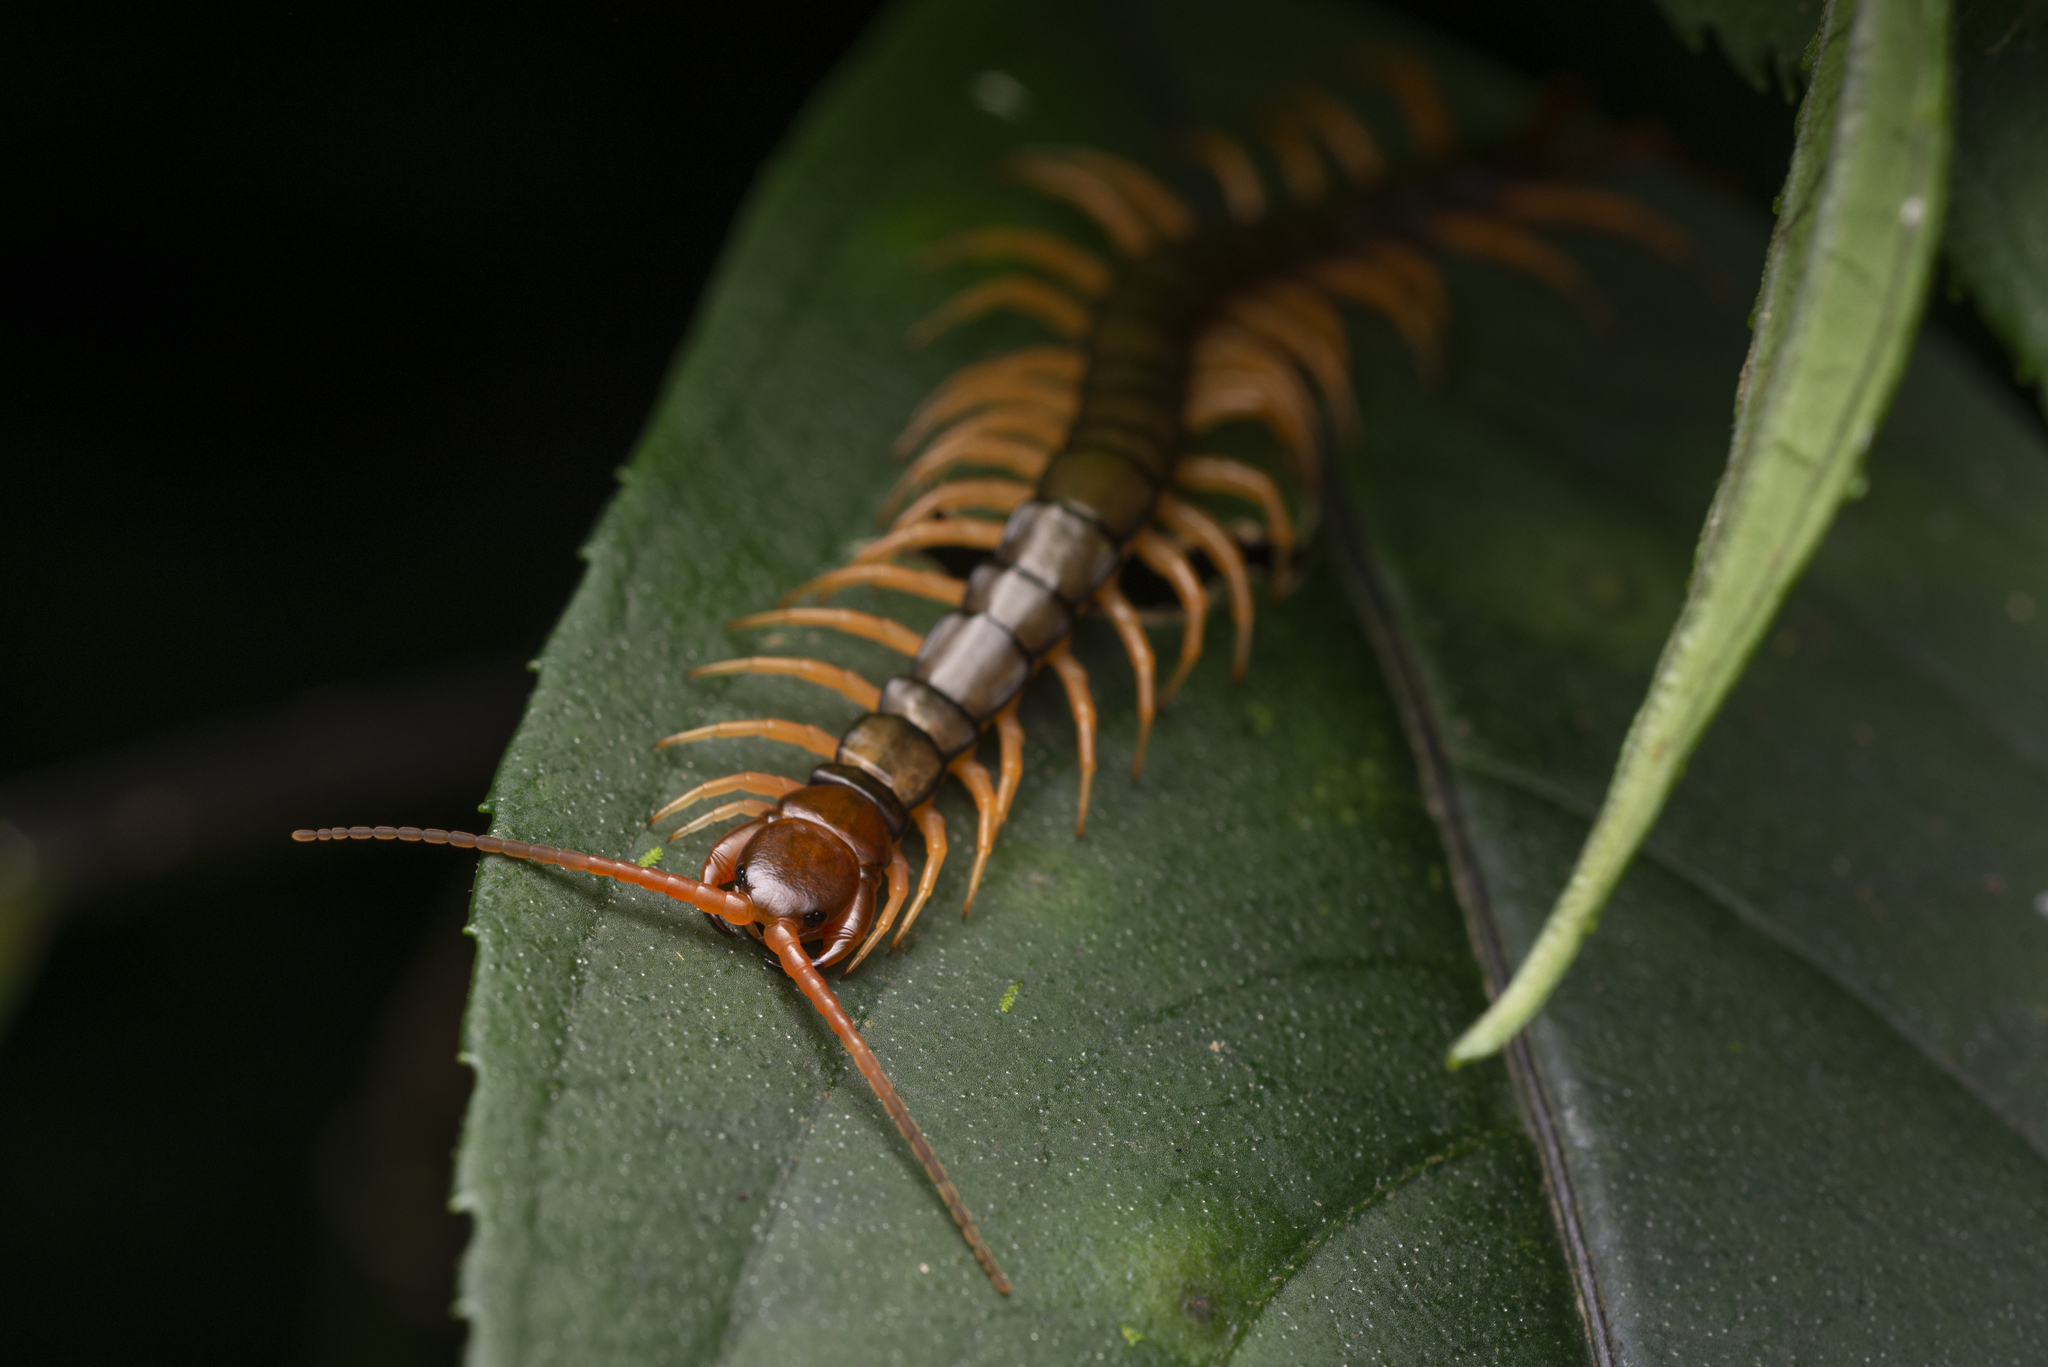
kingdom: Animalia
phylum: Arthropoda
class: Chilopoda
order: Scolopendromorpha
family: Scolopendridae
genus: Scolopendra
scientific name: Scolopendra hainana
